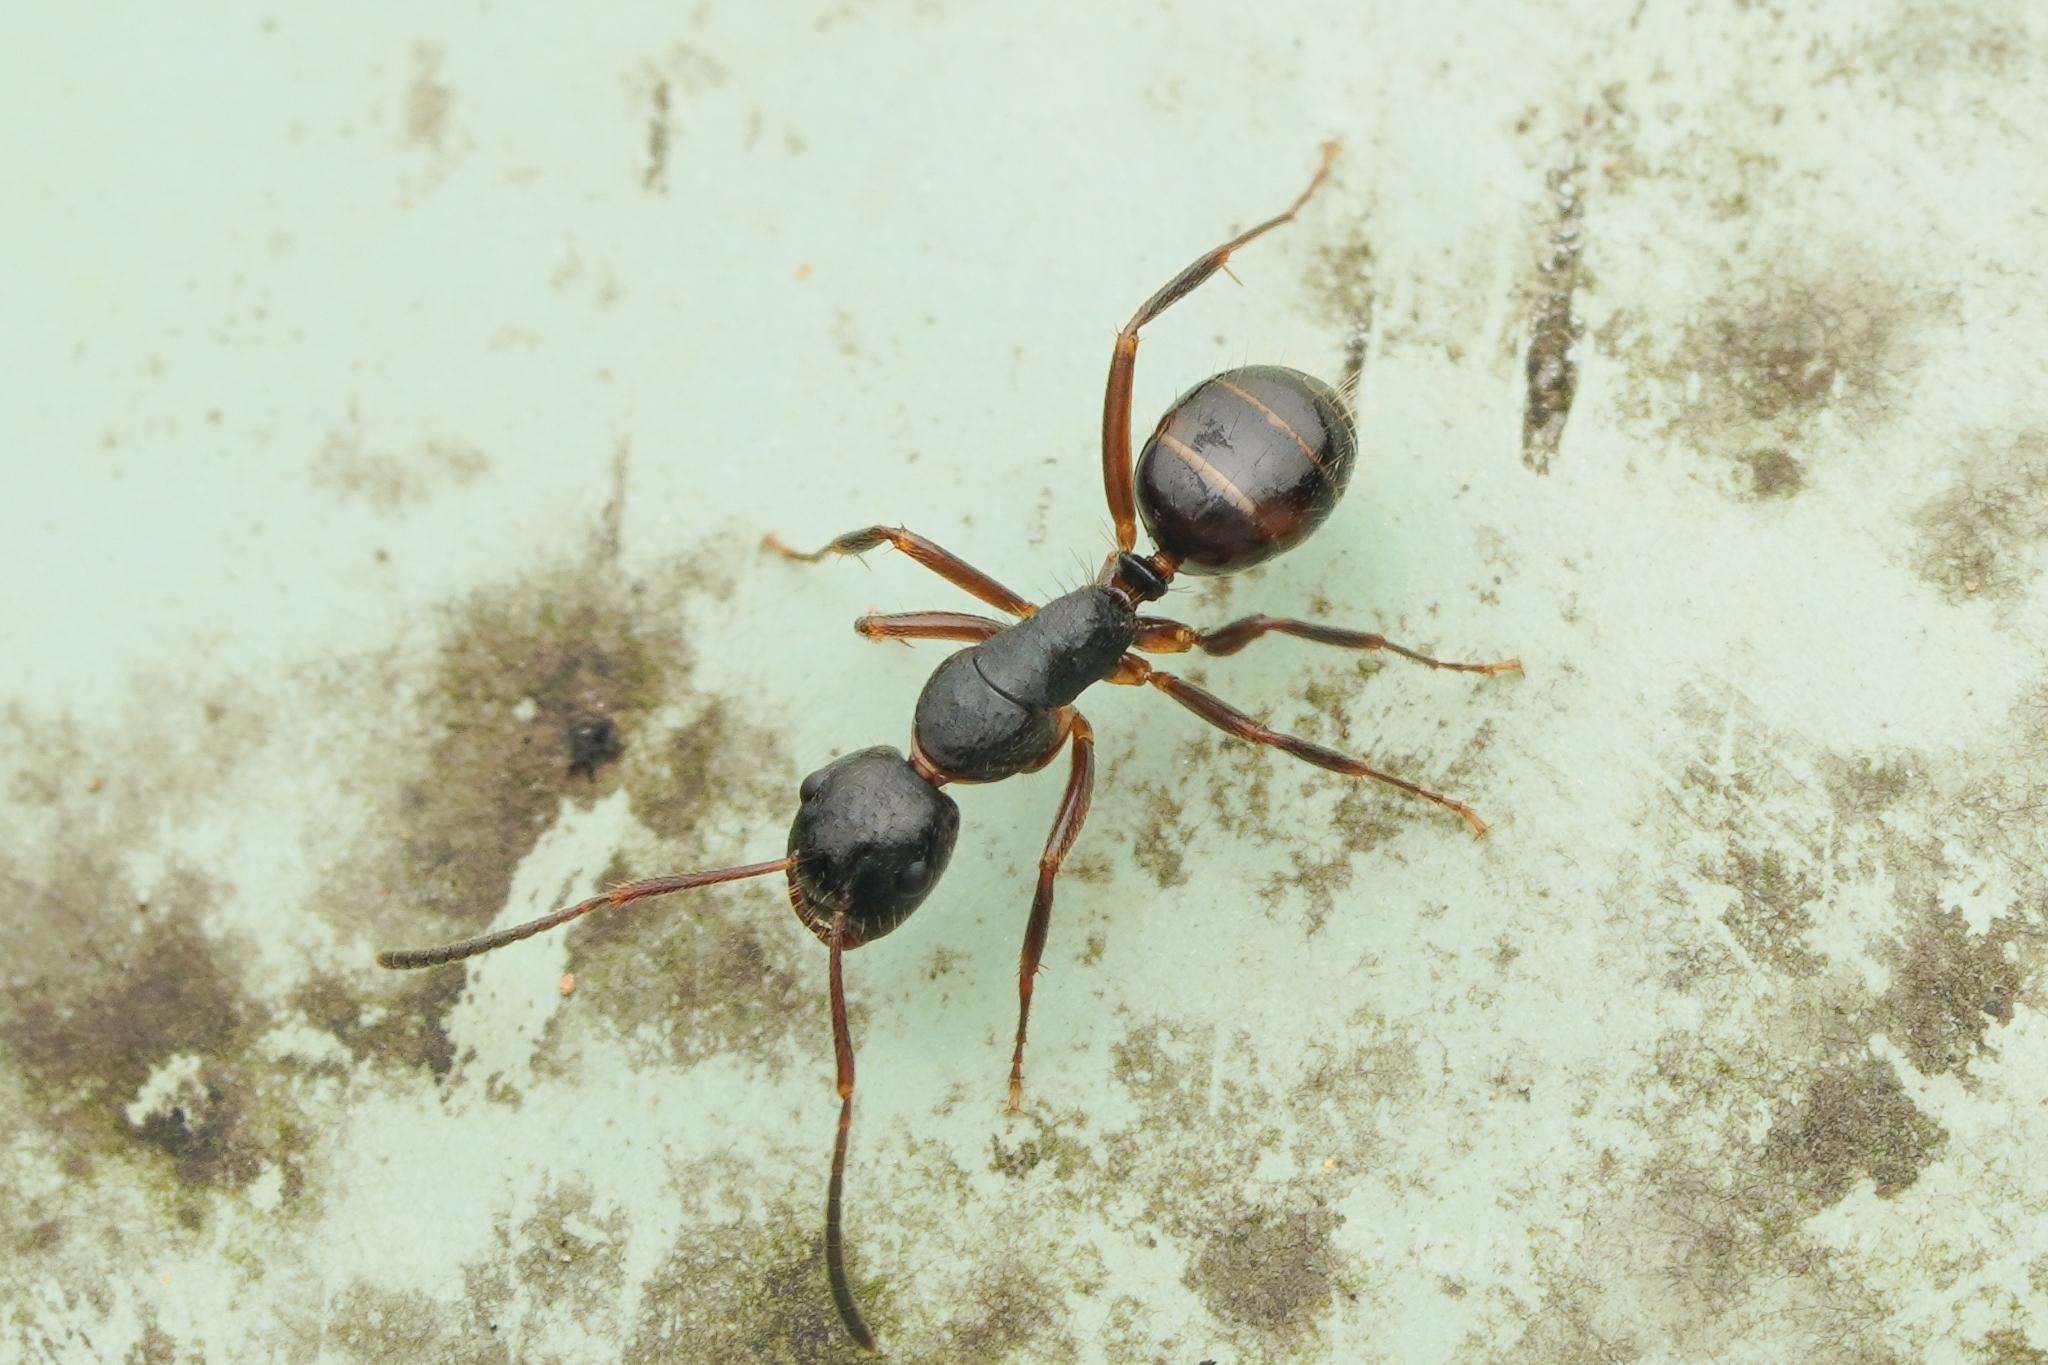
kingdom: Animalia
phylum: Arthropoda
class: Insecta
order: Hymenoptera
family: Formicidae
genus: Camponotus
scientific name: Camponotus nipponensis
